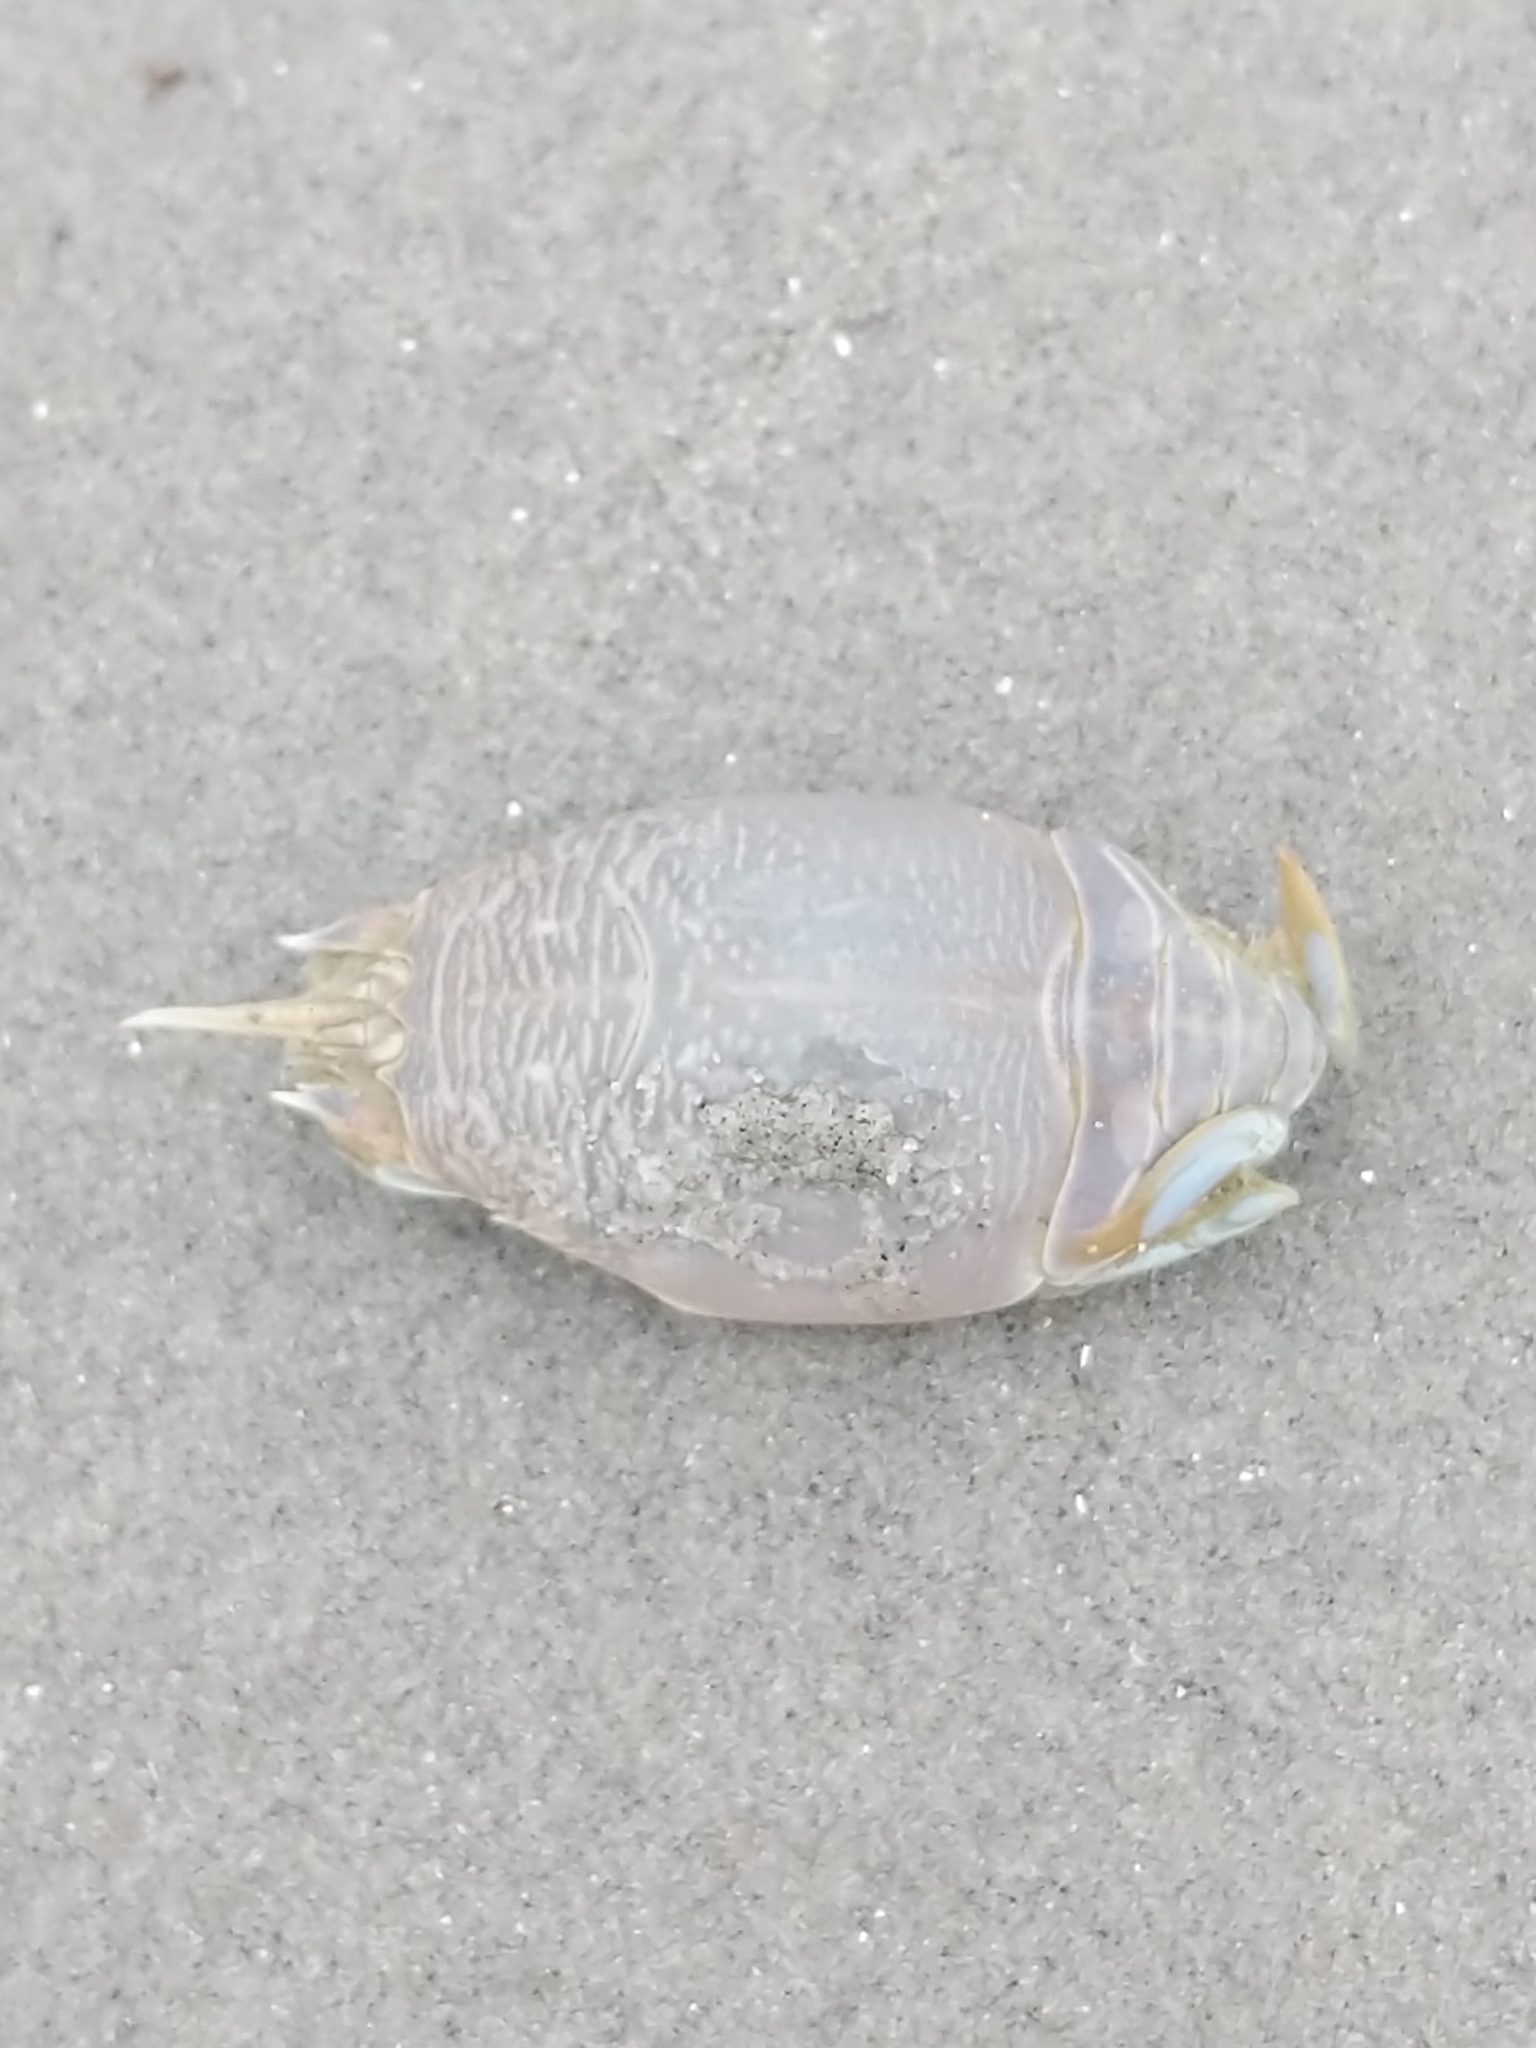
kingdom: Animalia
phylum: Arthropoda
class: Malacostraca
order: Decapoda
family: Hippidae
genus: Emerita
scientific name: Emerita talpoida
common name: Atlantic sand crab
